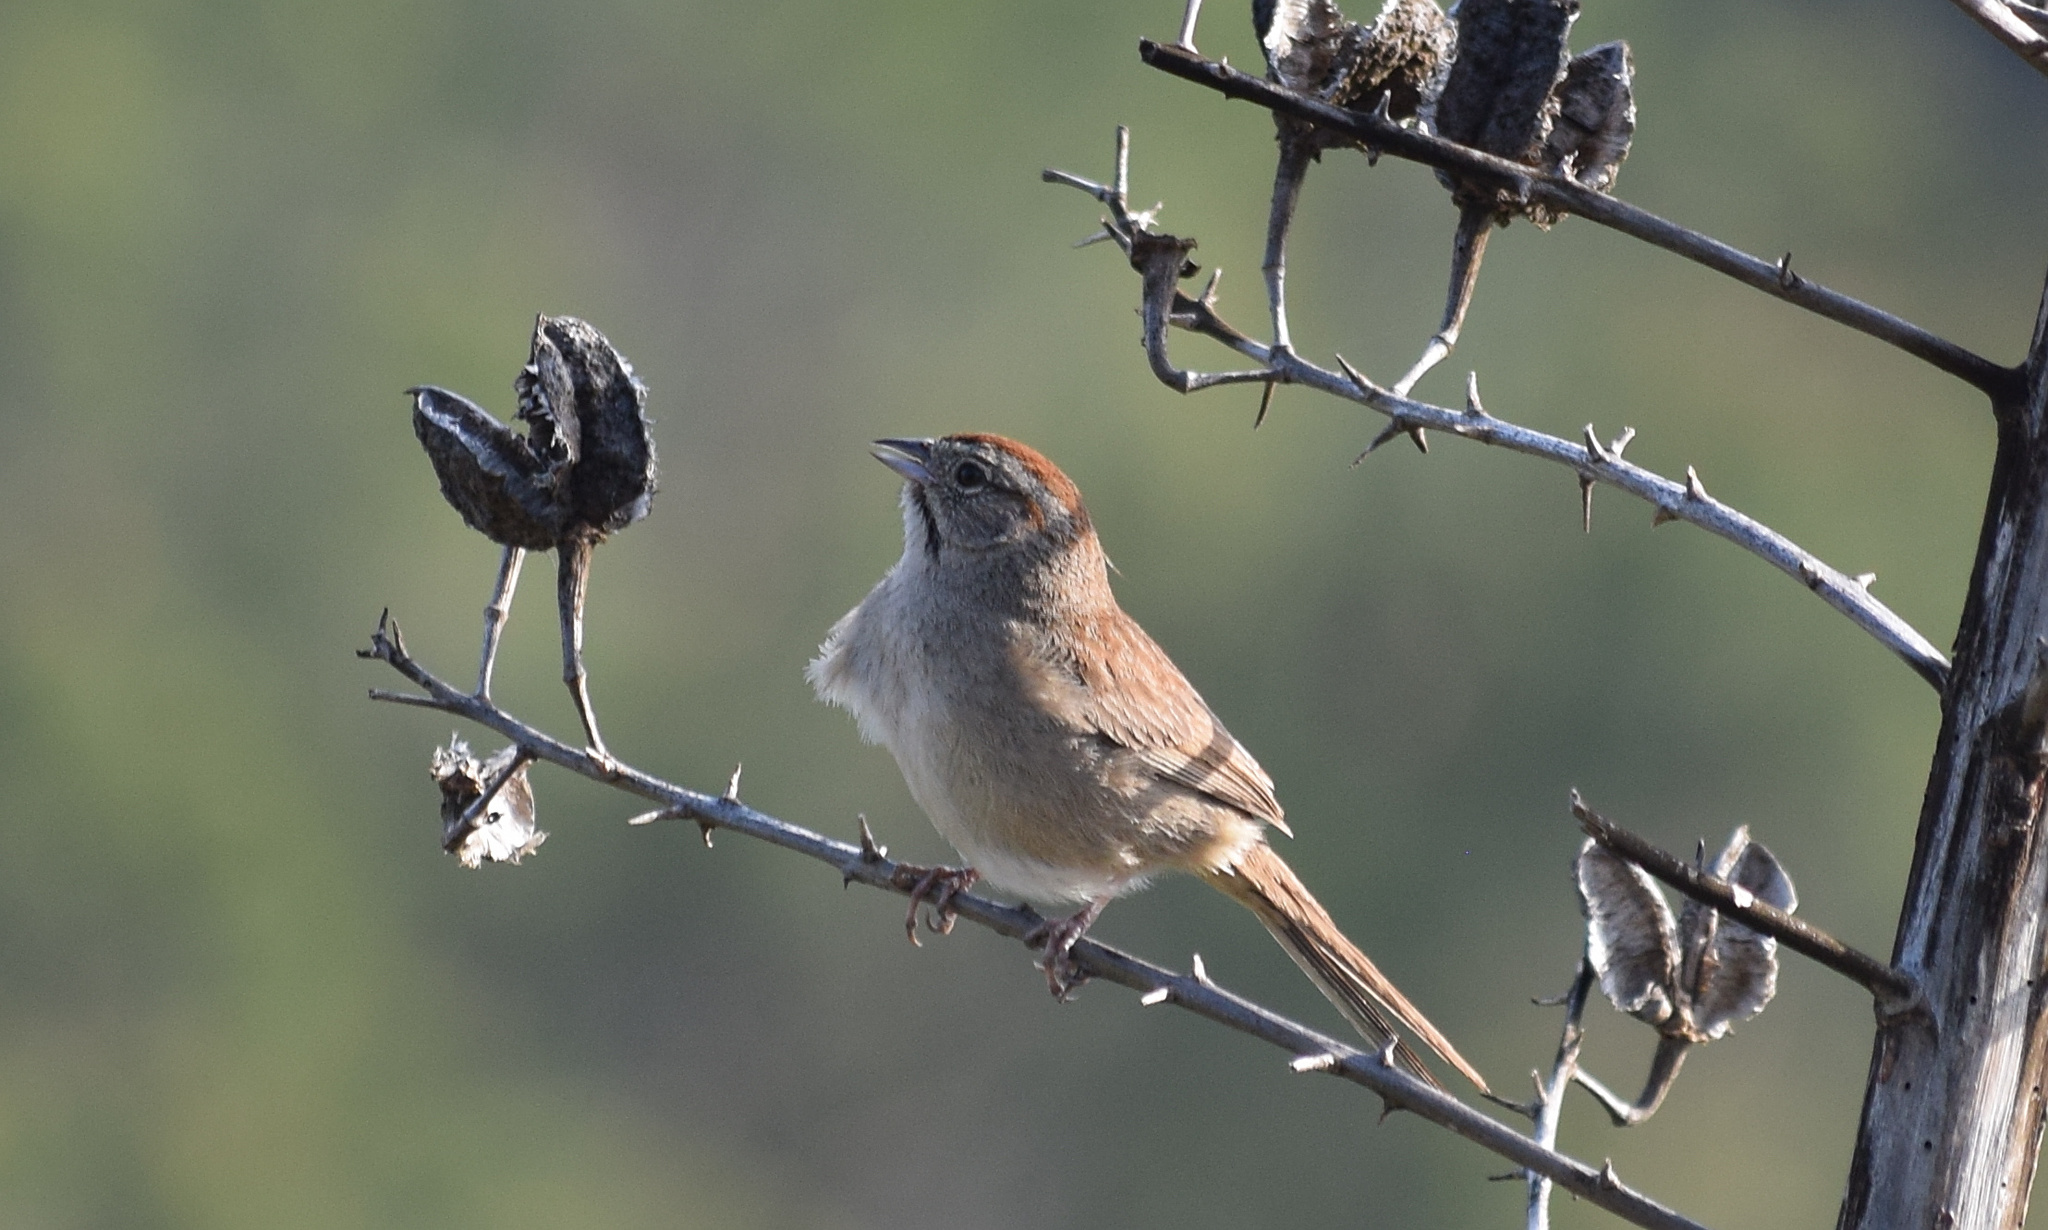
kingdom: Animalia
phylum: Chordata
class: Aves
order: Passeriformes
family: Passerellidae
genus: Aimophila
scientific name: Aimophila ruficeps
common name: Rufous-crowned sparrow
